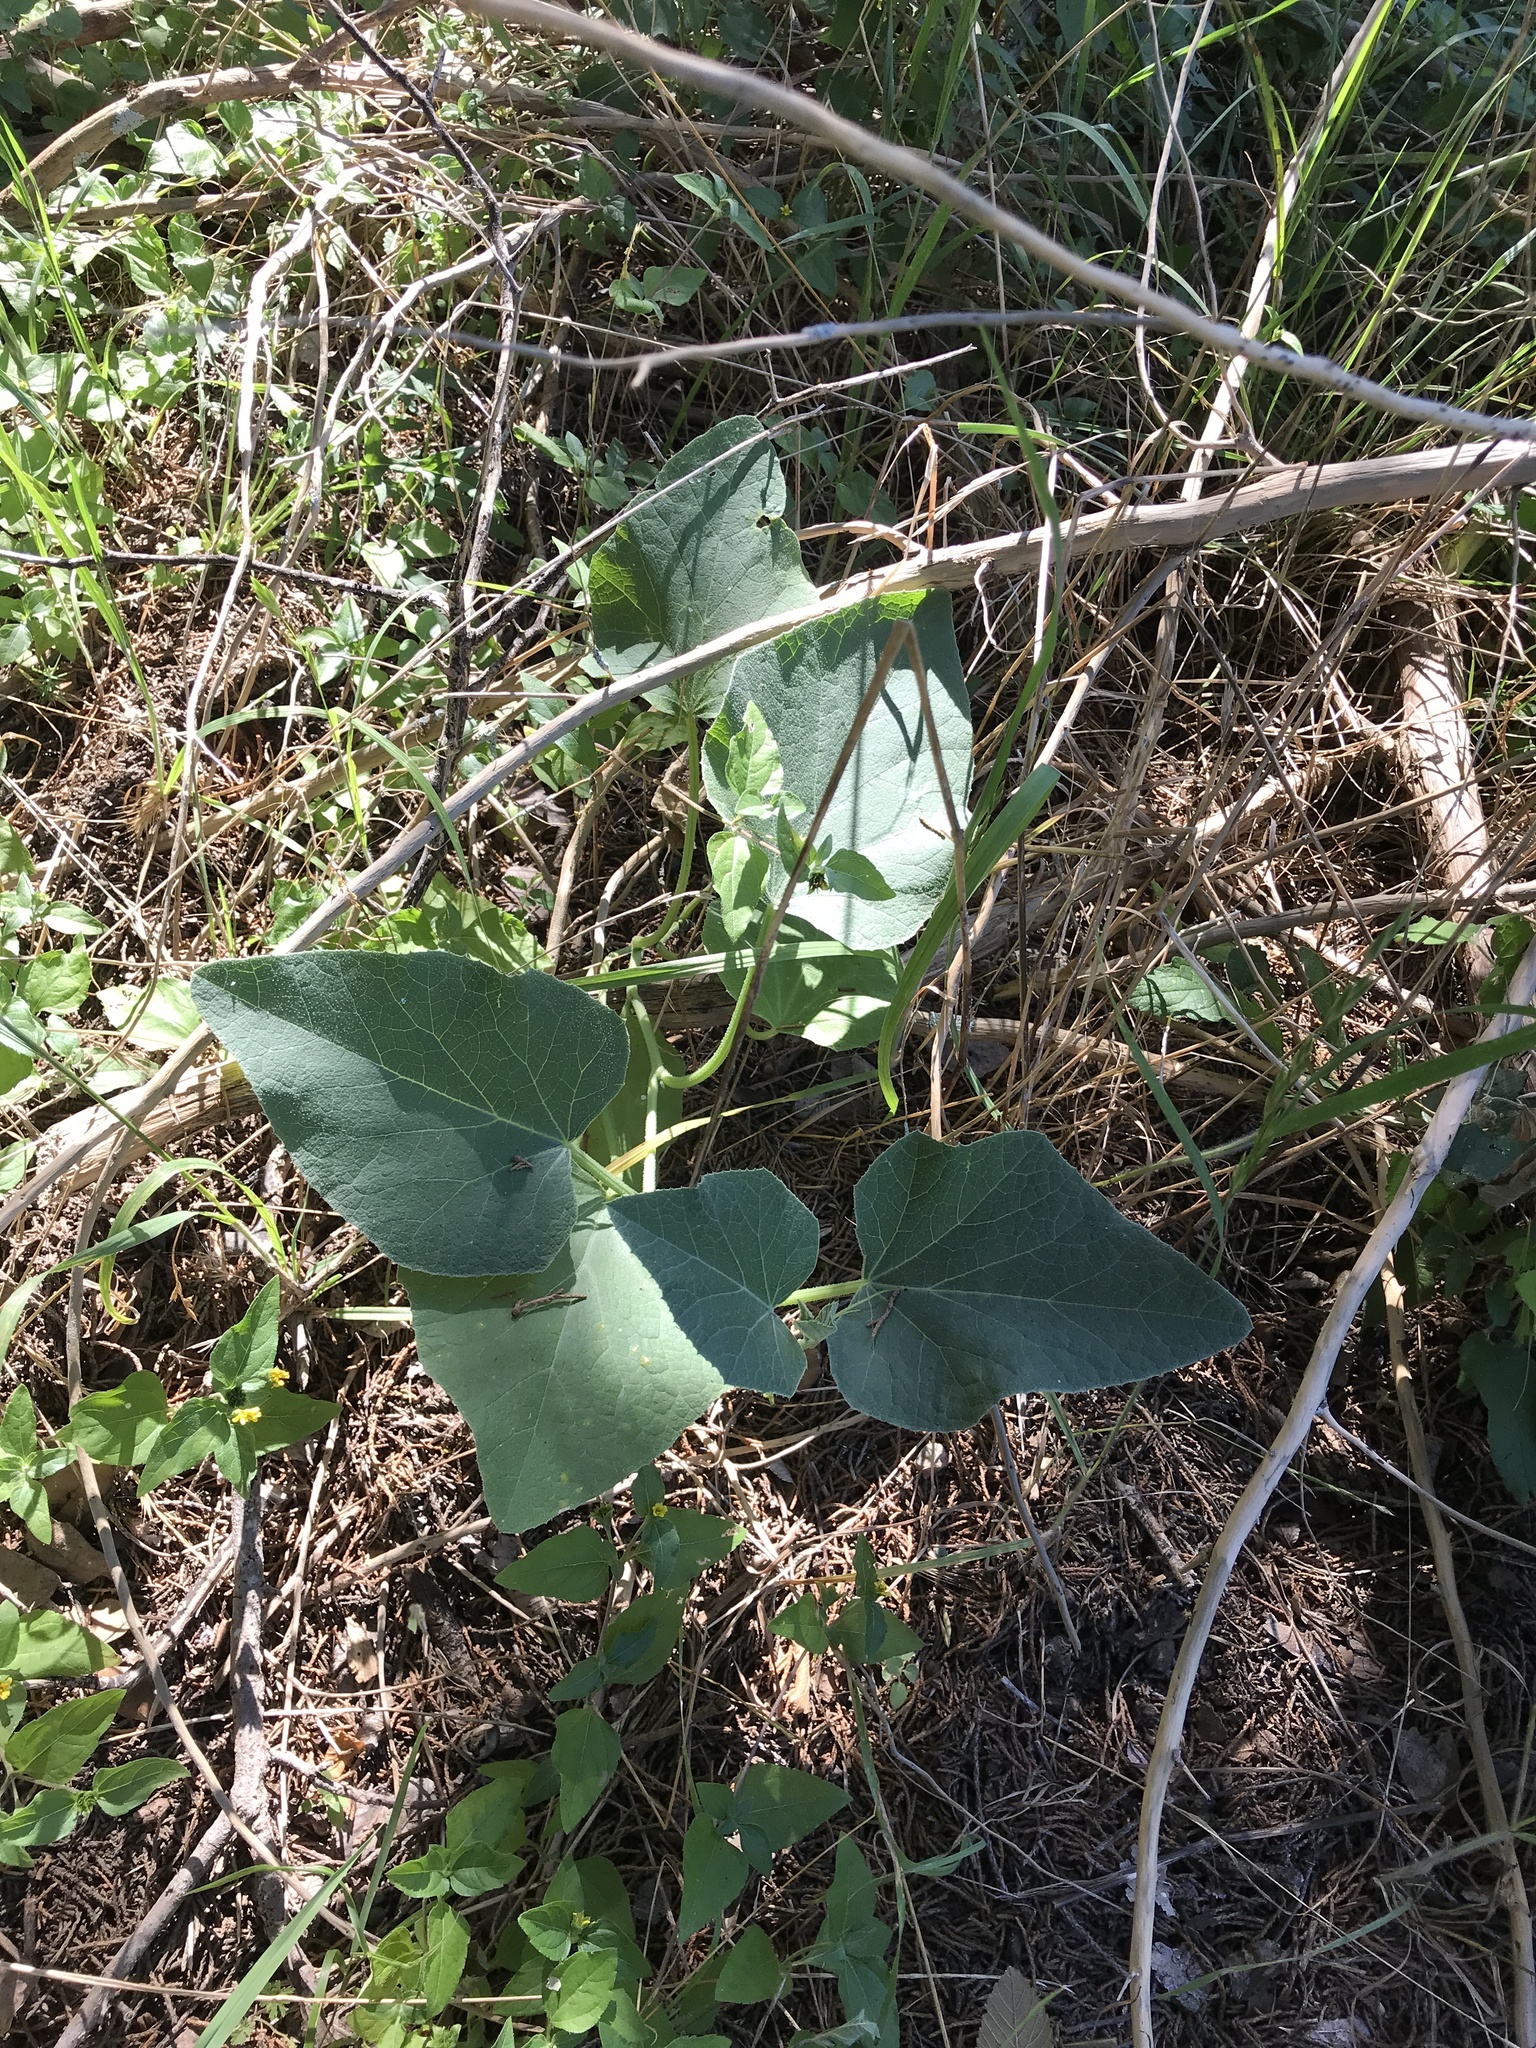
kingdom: Plantae
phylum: Tracheophyta
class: Magnoliopsida
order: Cucurbitales
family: Cucurbitaceae
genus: Cucurbita
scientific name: Cucurbita foetidissima
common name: Buffalo gourd
